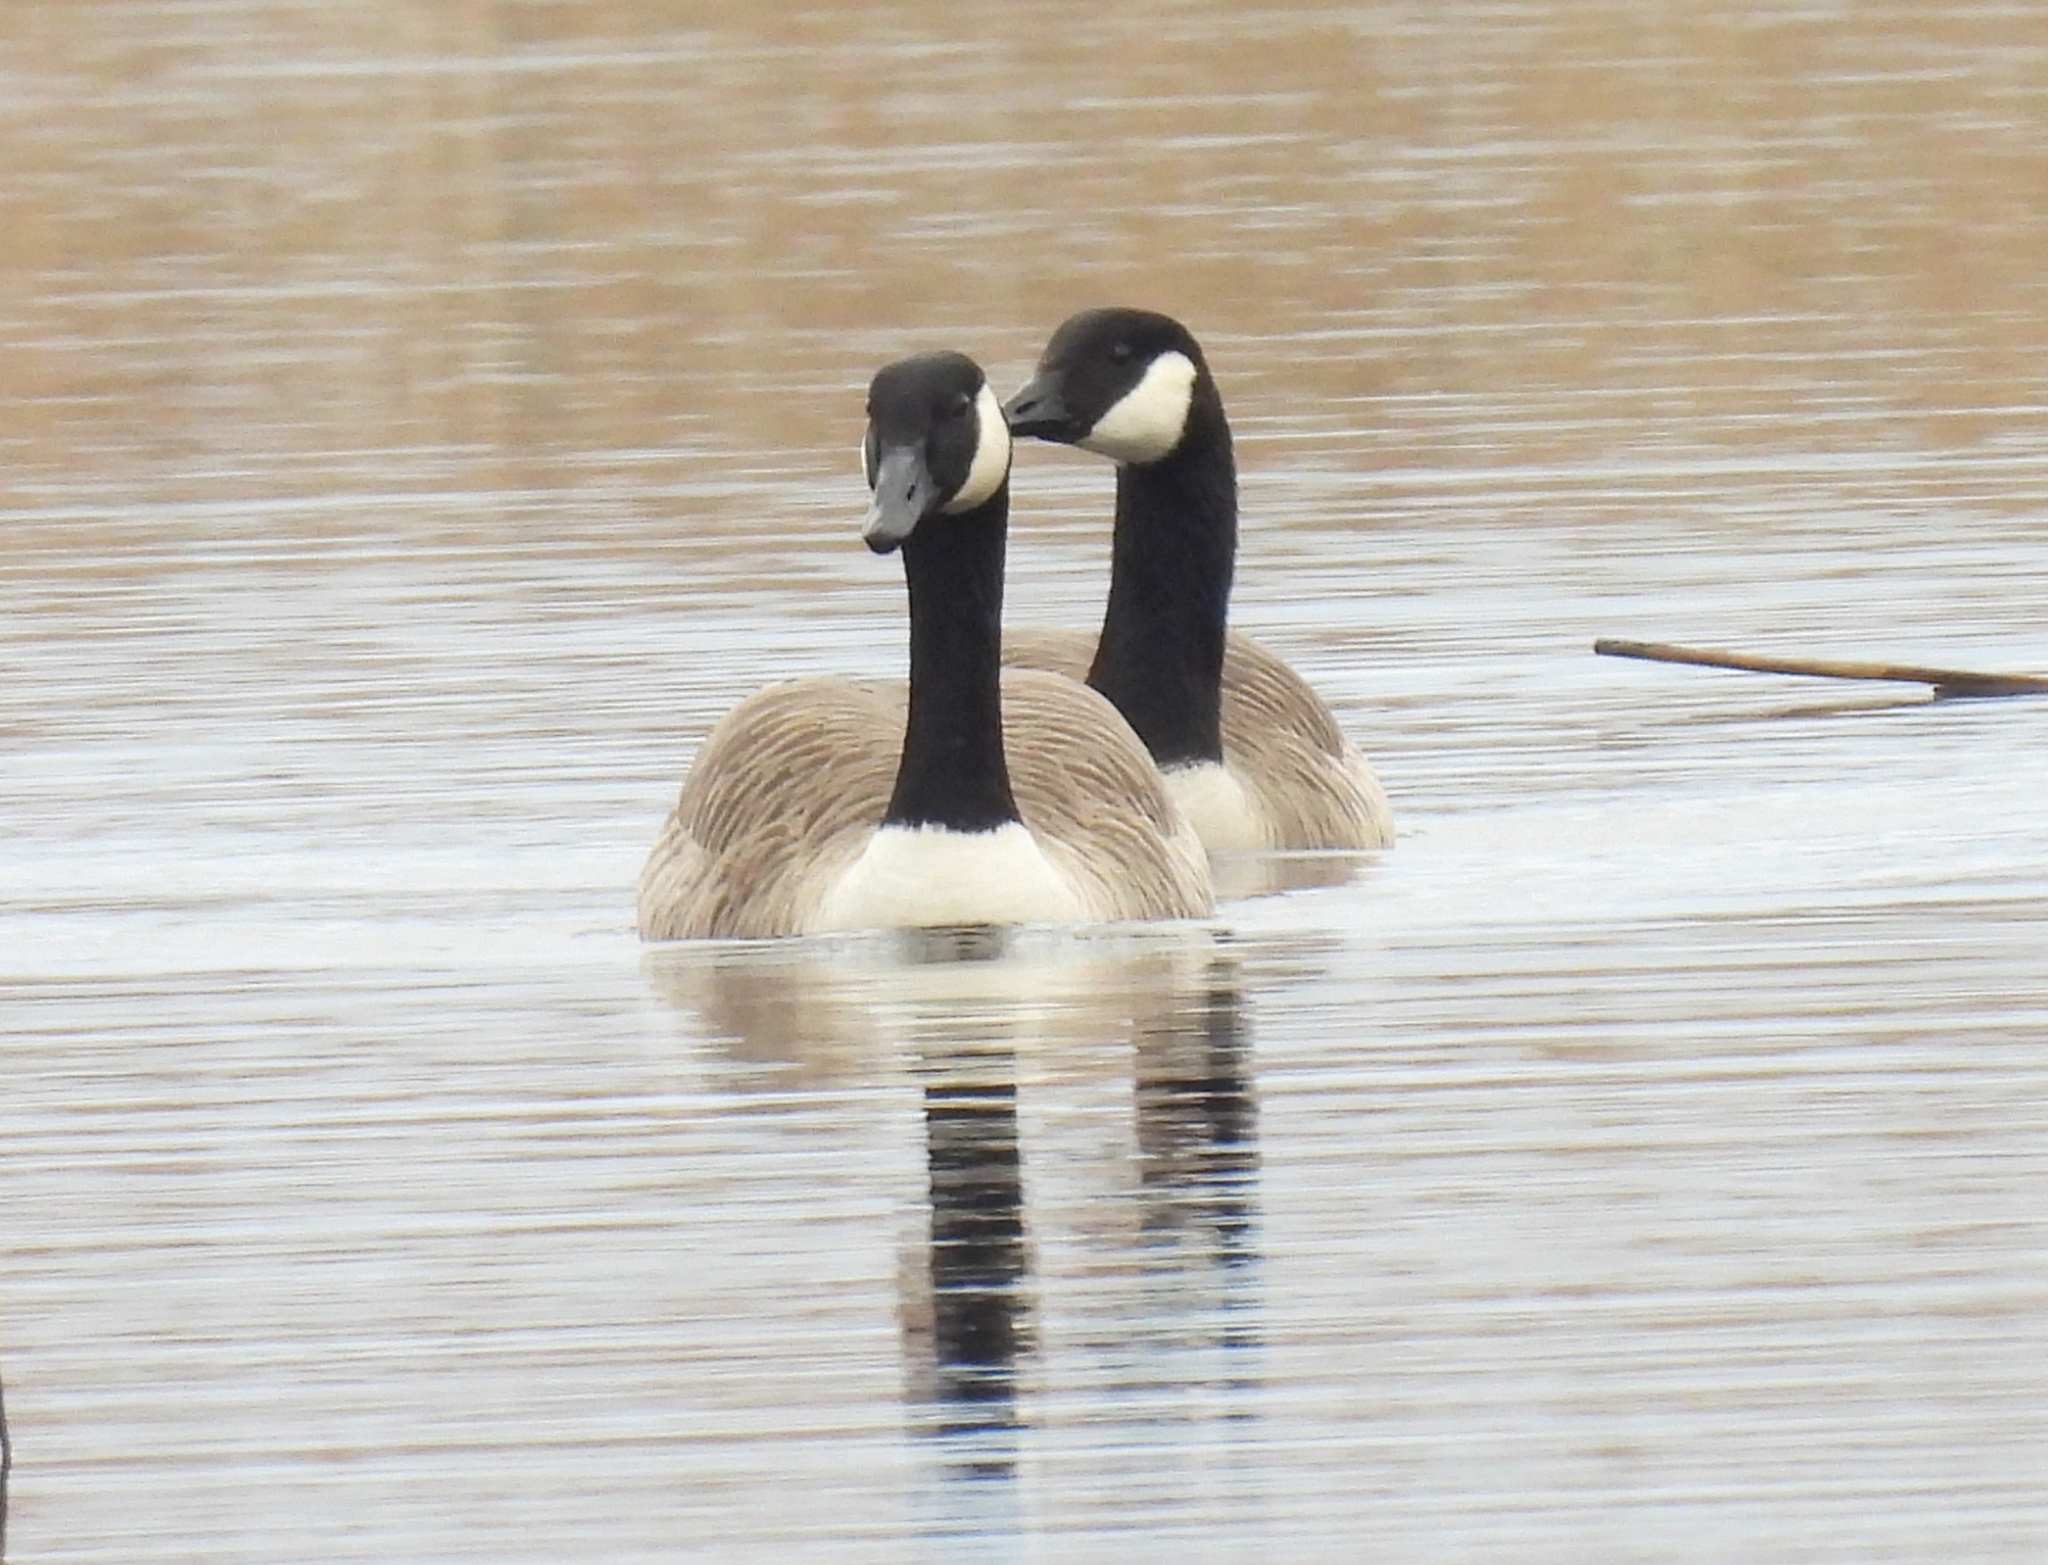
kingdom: Animalia
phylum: Chordata
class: Aves
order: Anseriformes
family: Anatidae
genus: Branta
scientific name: Branta canadensis
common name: Canada goose
